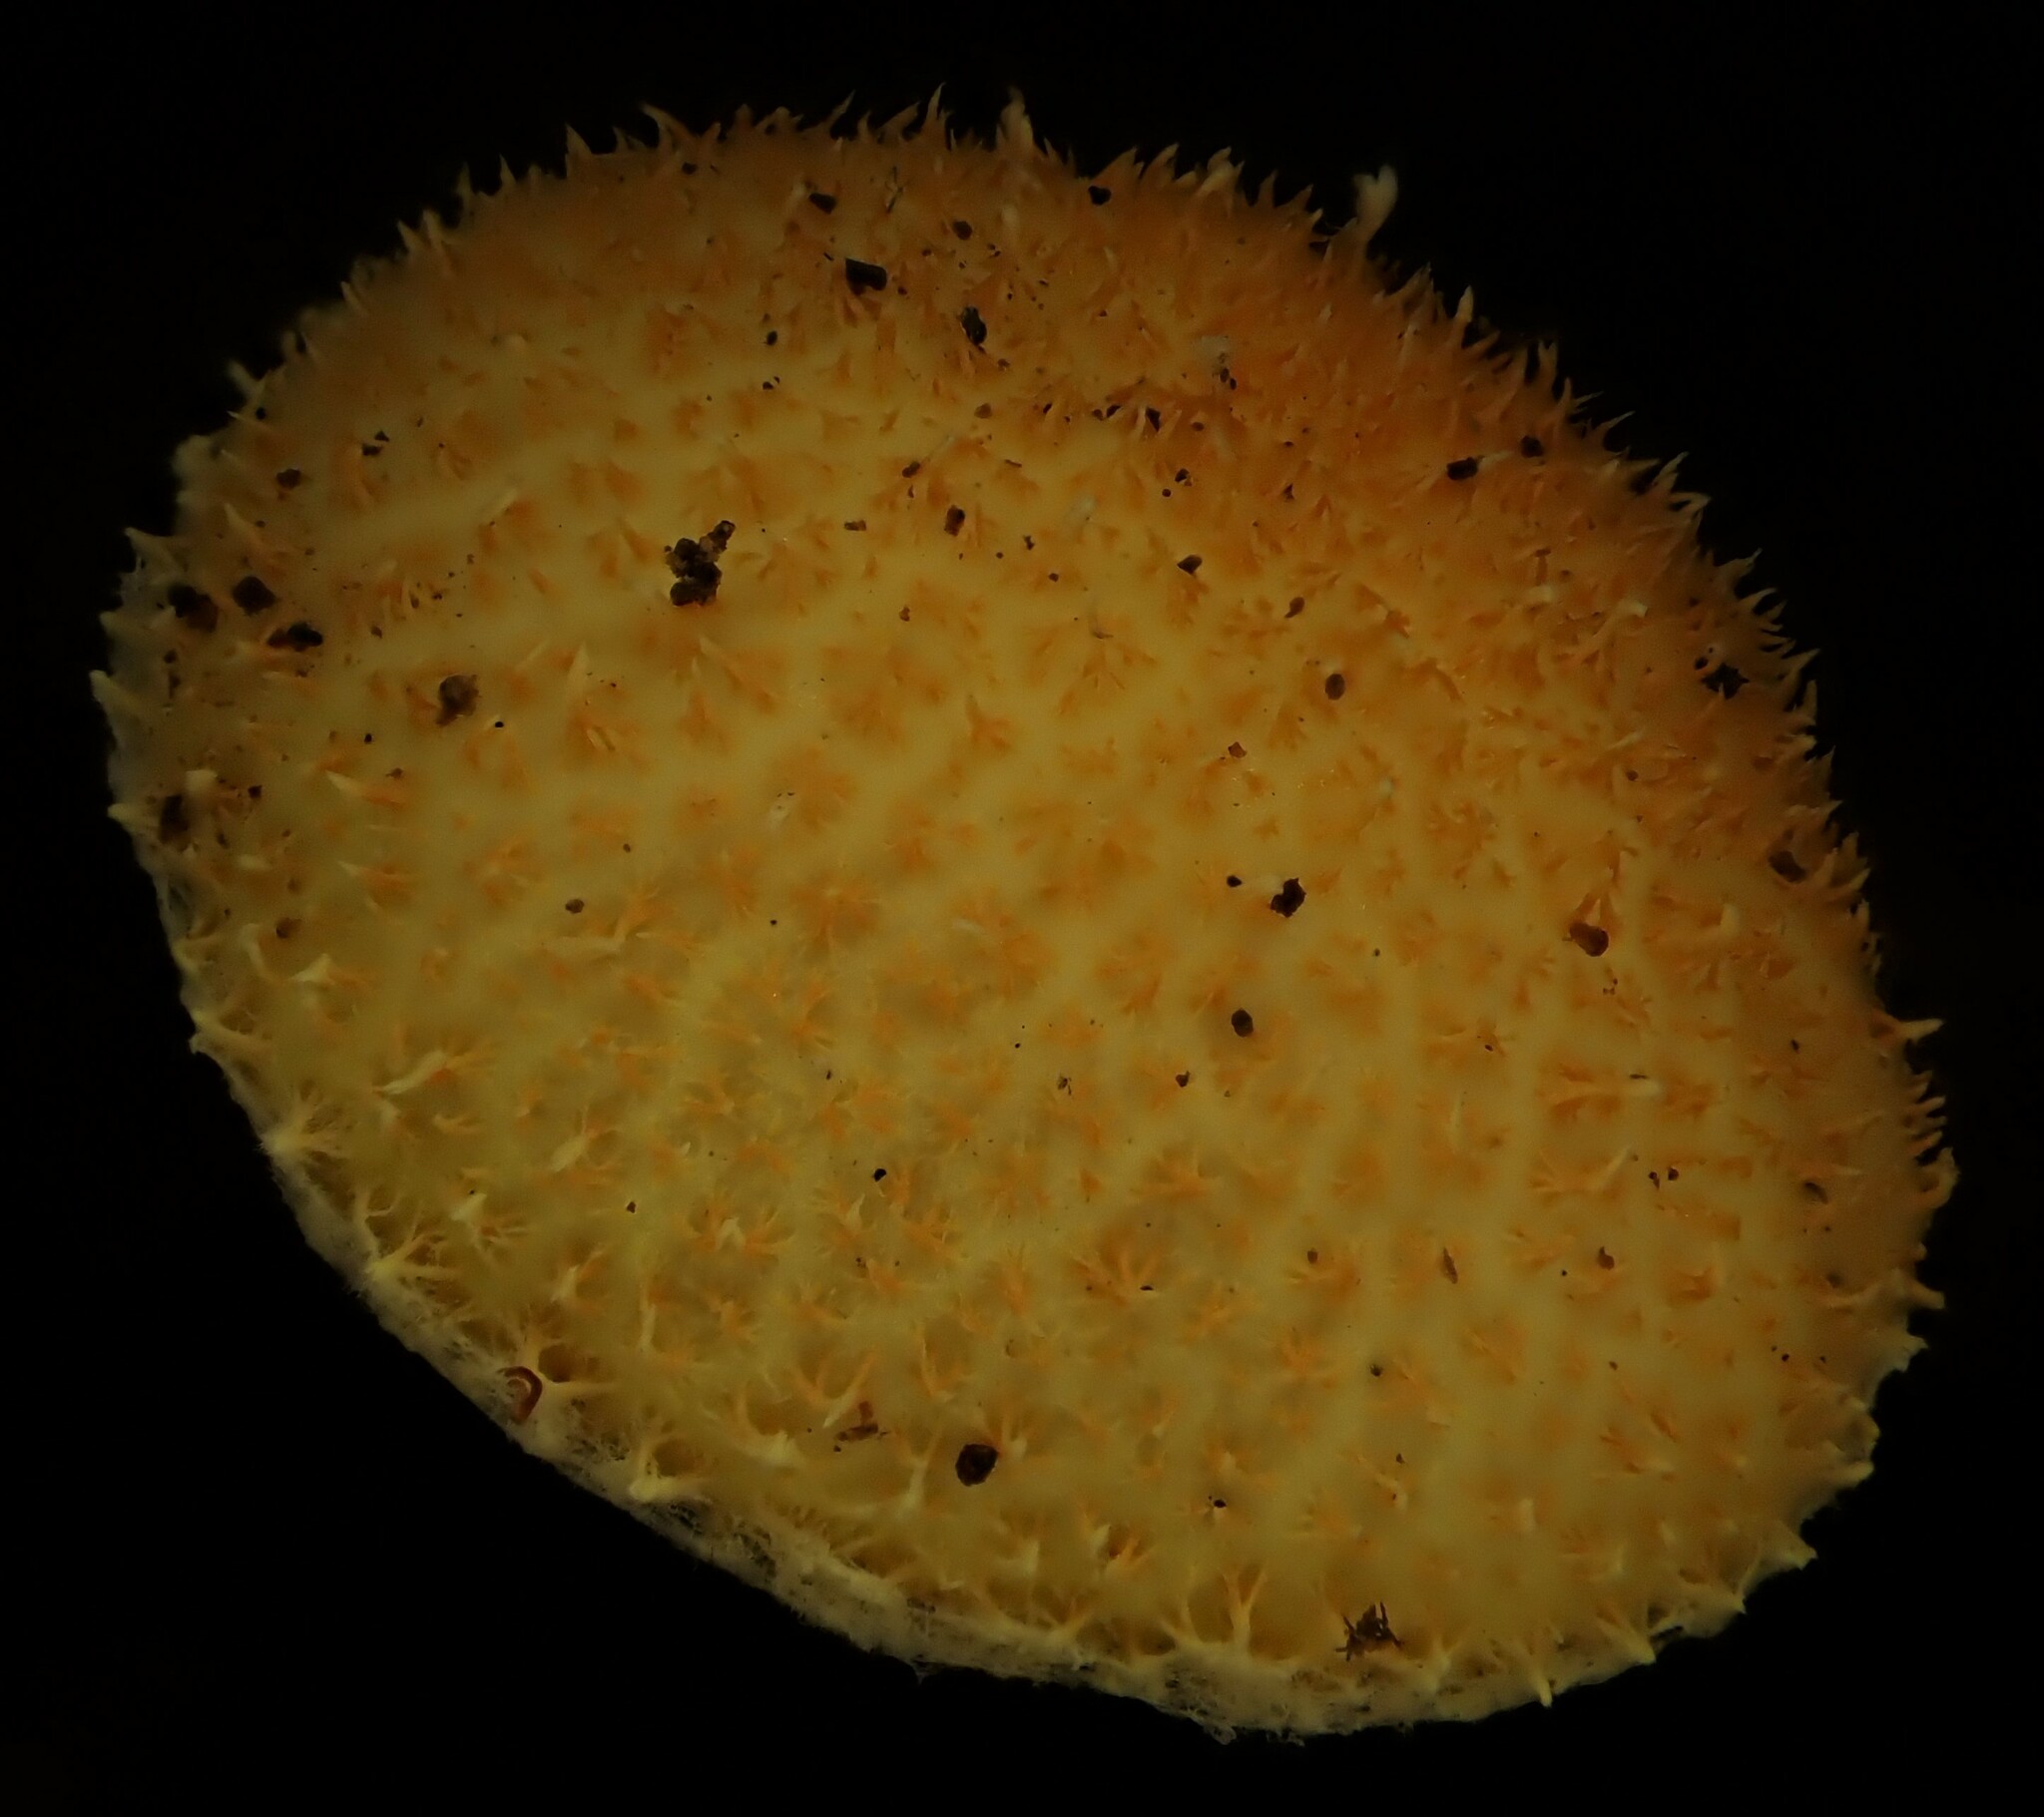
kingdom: Fungi
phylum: Basidiomycota
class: Agaricomycetes
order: Agaricales
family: Physalacriaceae
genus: Cyptotrama
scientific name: Cyptotrama asprata
